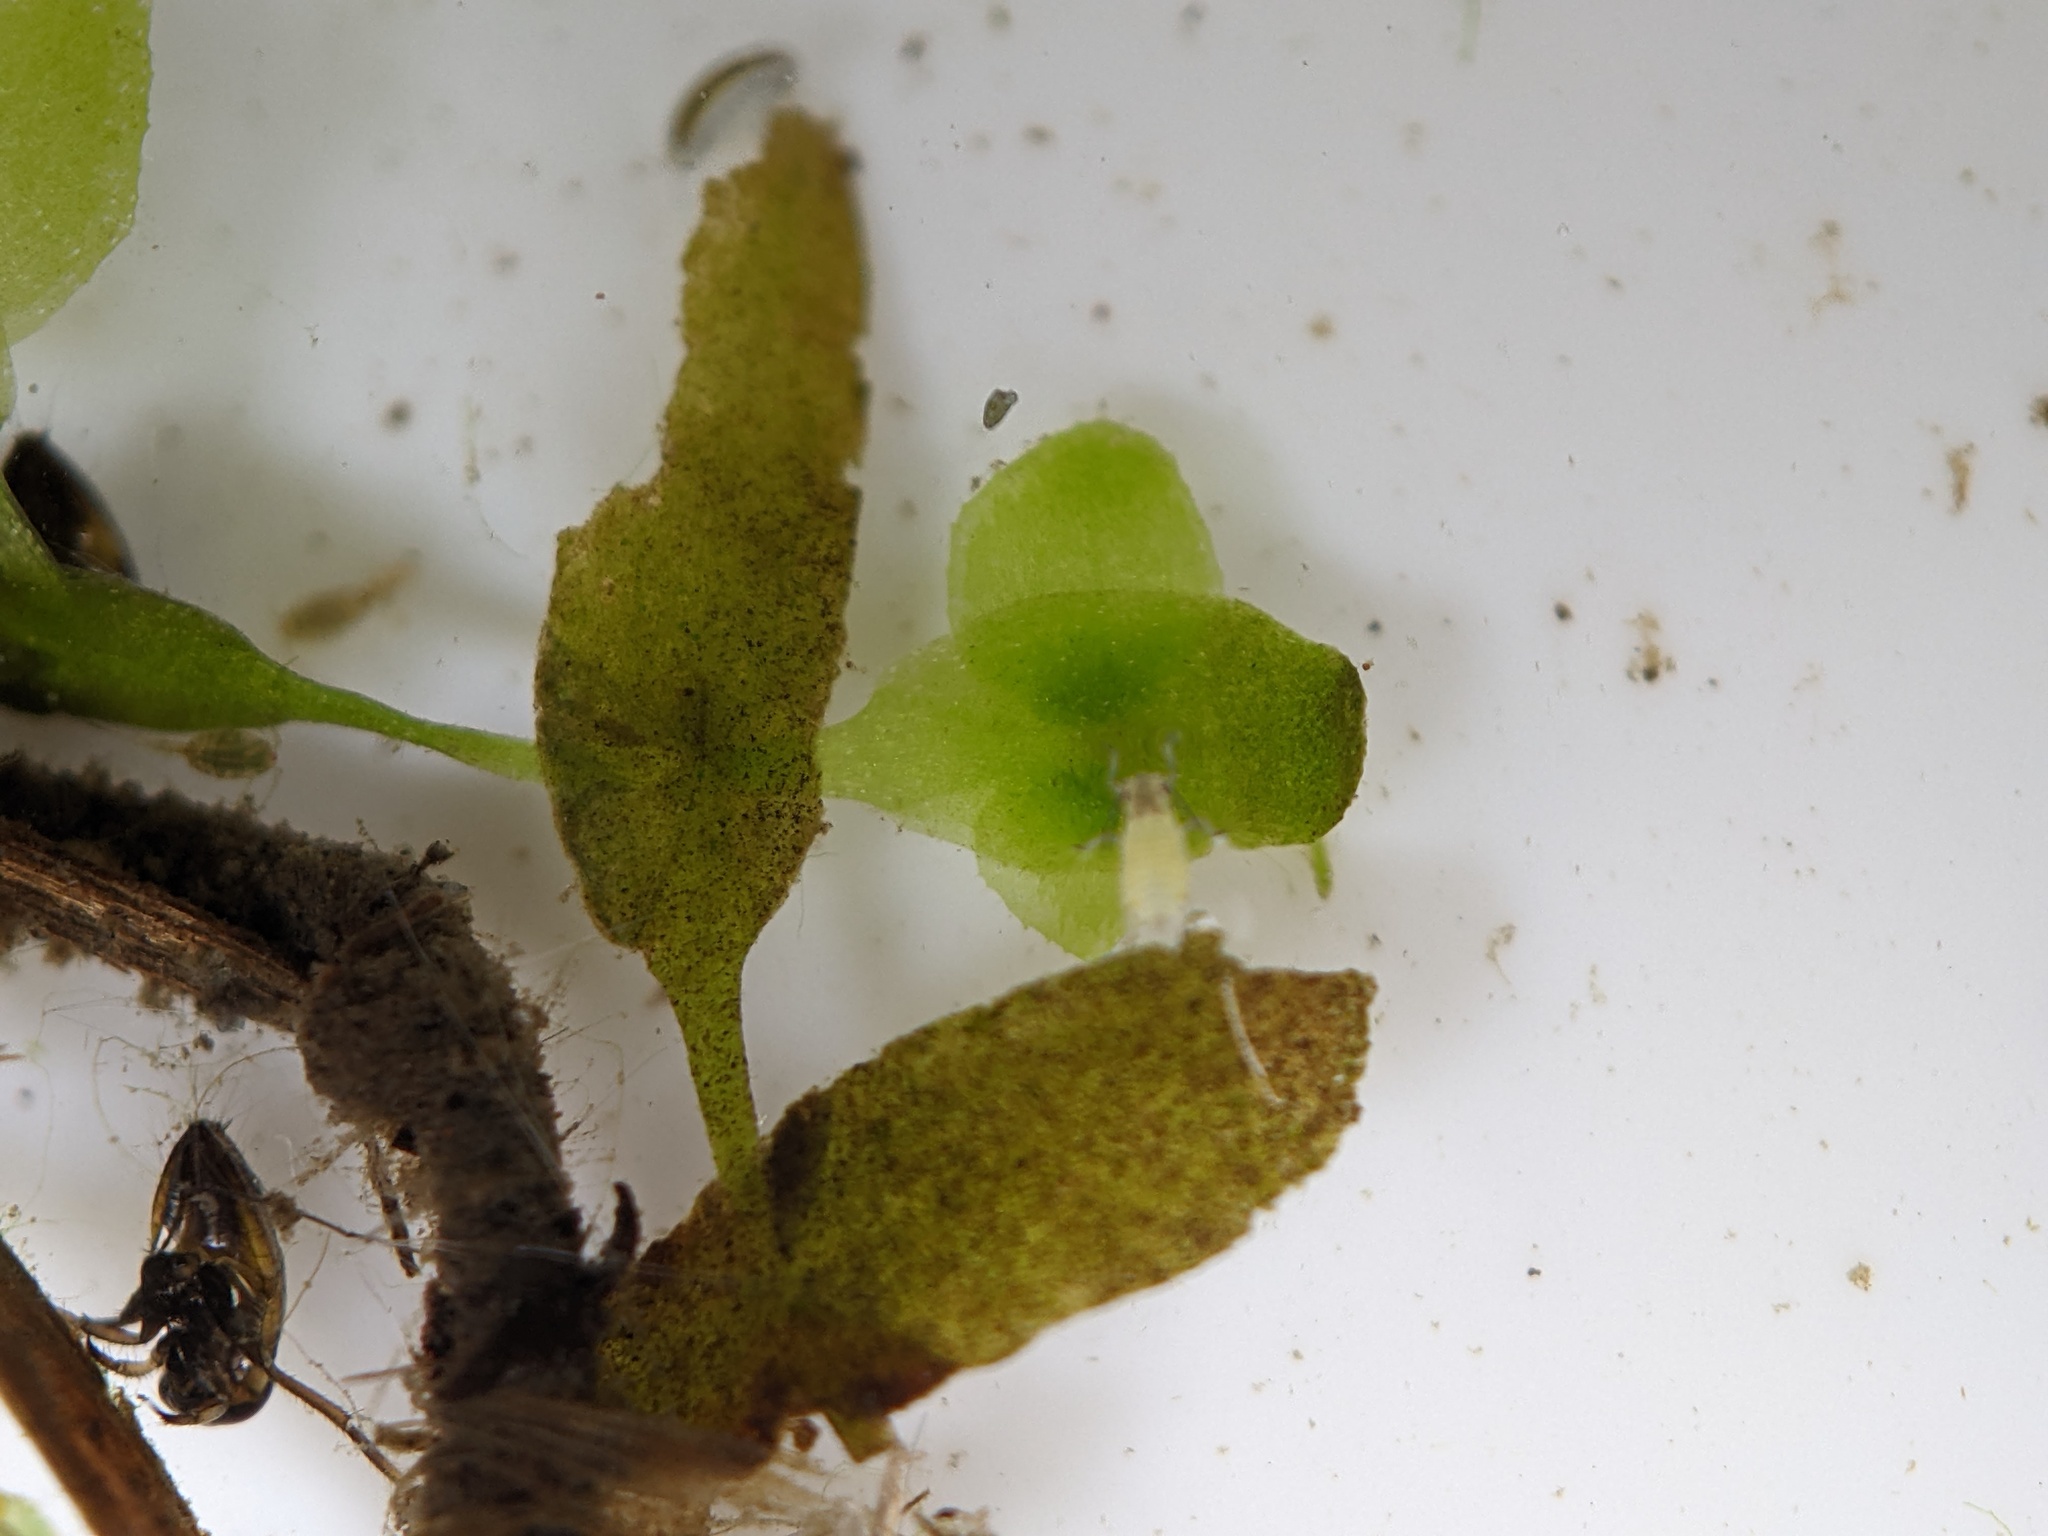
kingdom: Plantae
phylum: Tracheophyta
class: Liliopsida
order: Alismatales
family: Araceae
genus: Lemna
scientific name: Lemna trisulca
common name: Ivy-leaved duckweed
